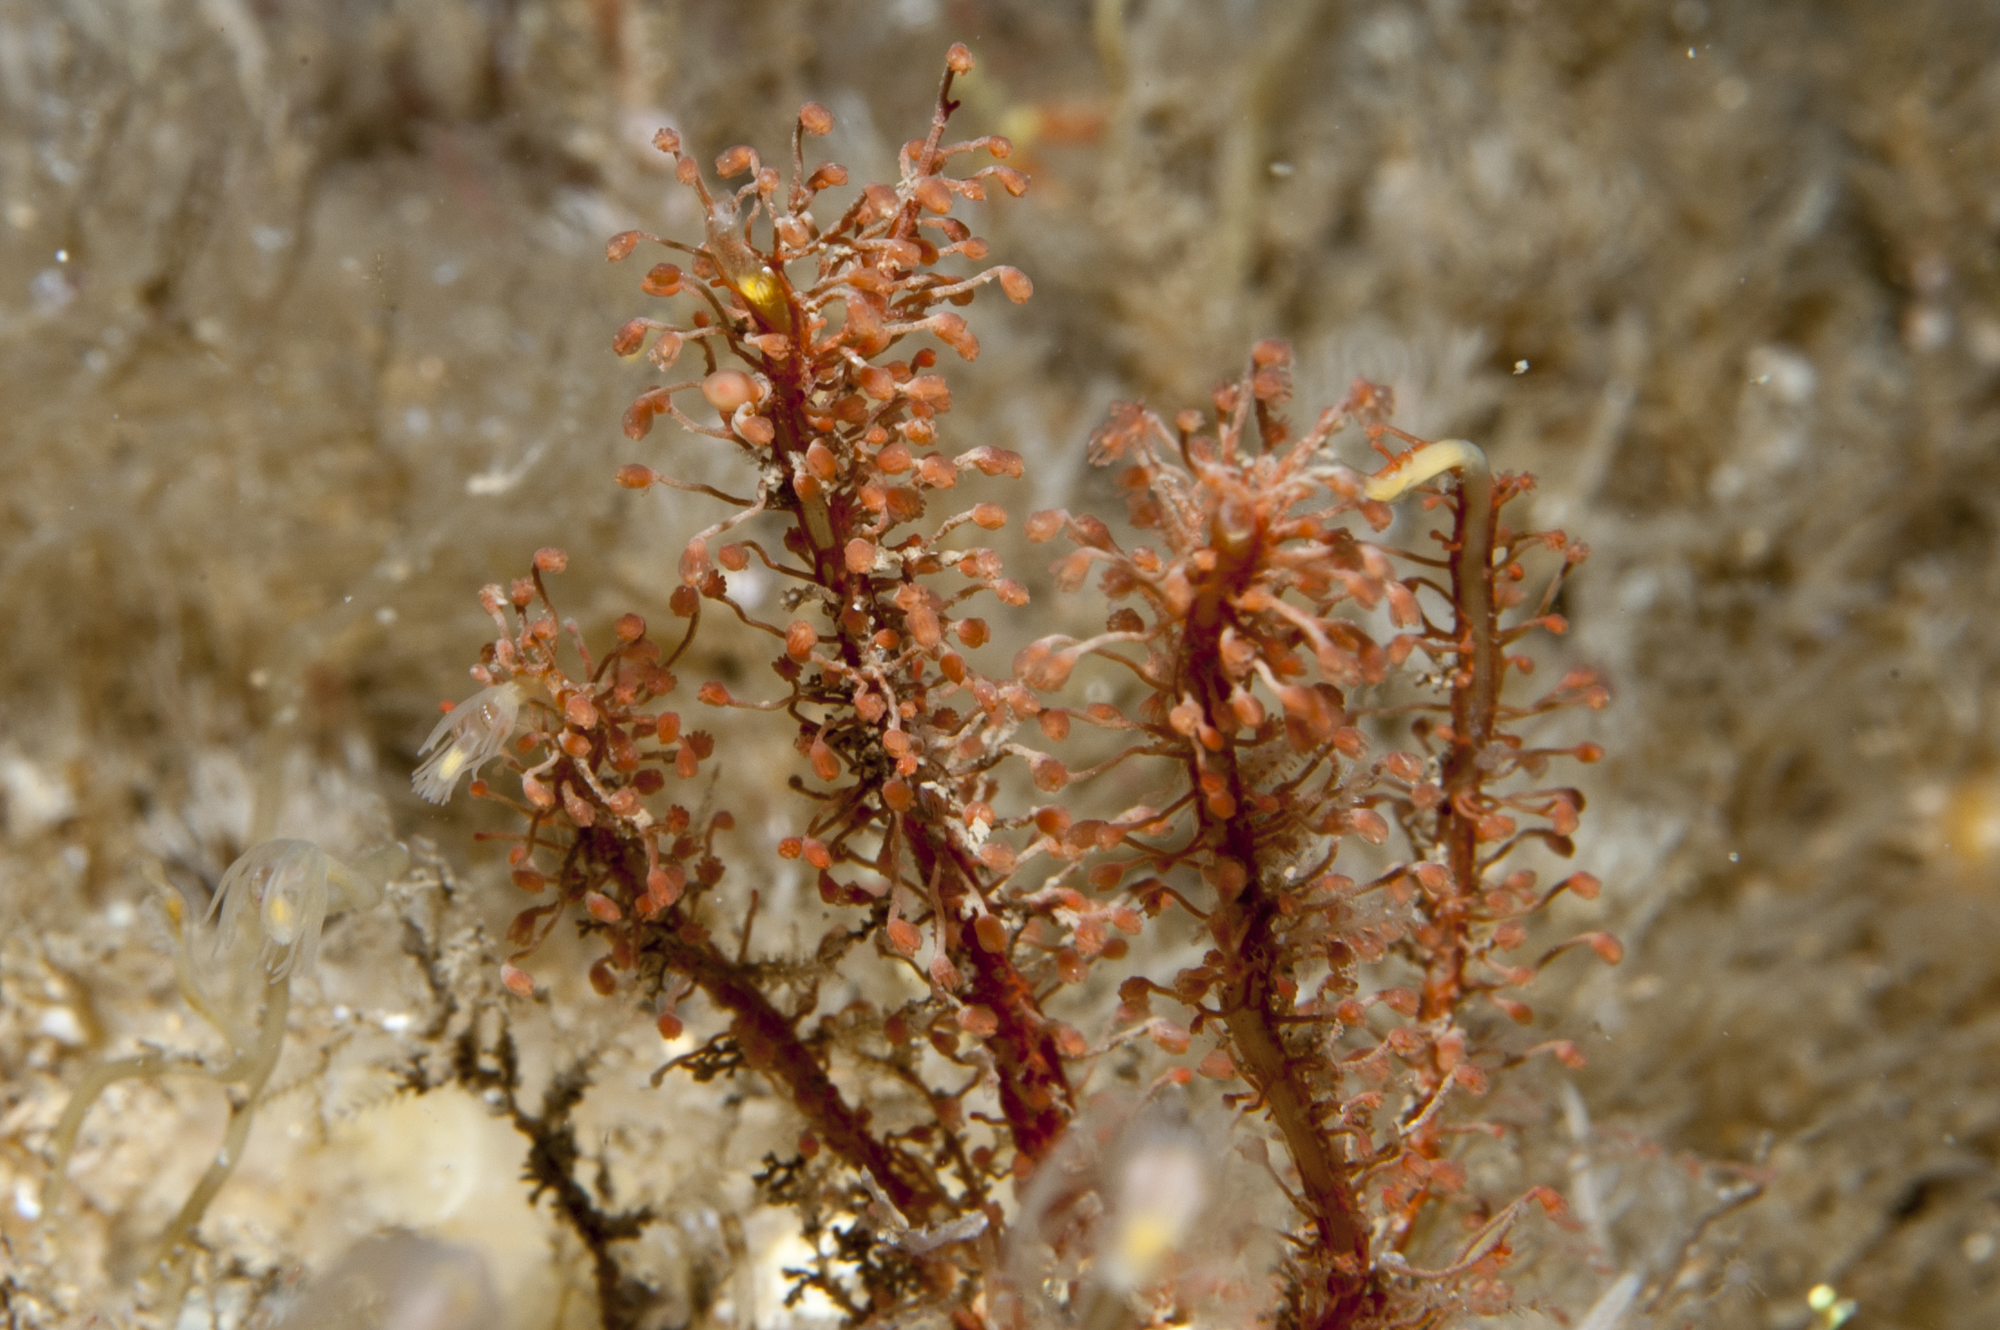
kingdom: Animalia
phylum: Cnidaria
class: Hydrozoa
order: Anthoathecata
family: Bougainvilliidae
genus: Garveia
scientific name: Garveia nutans
